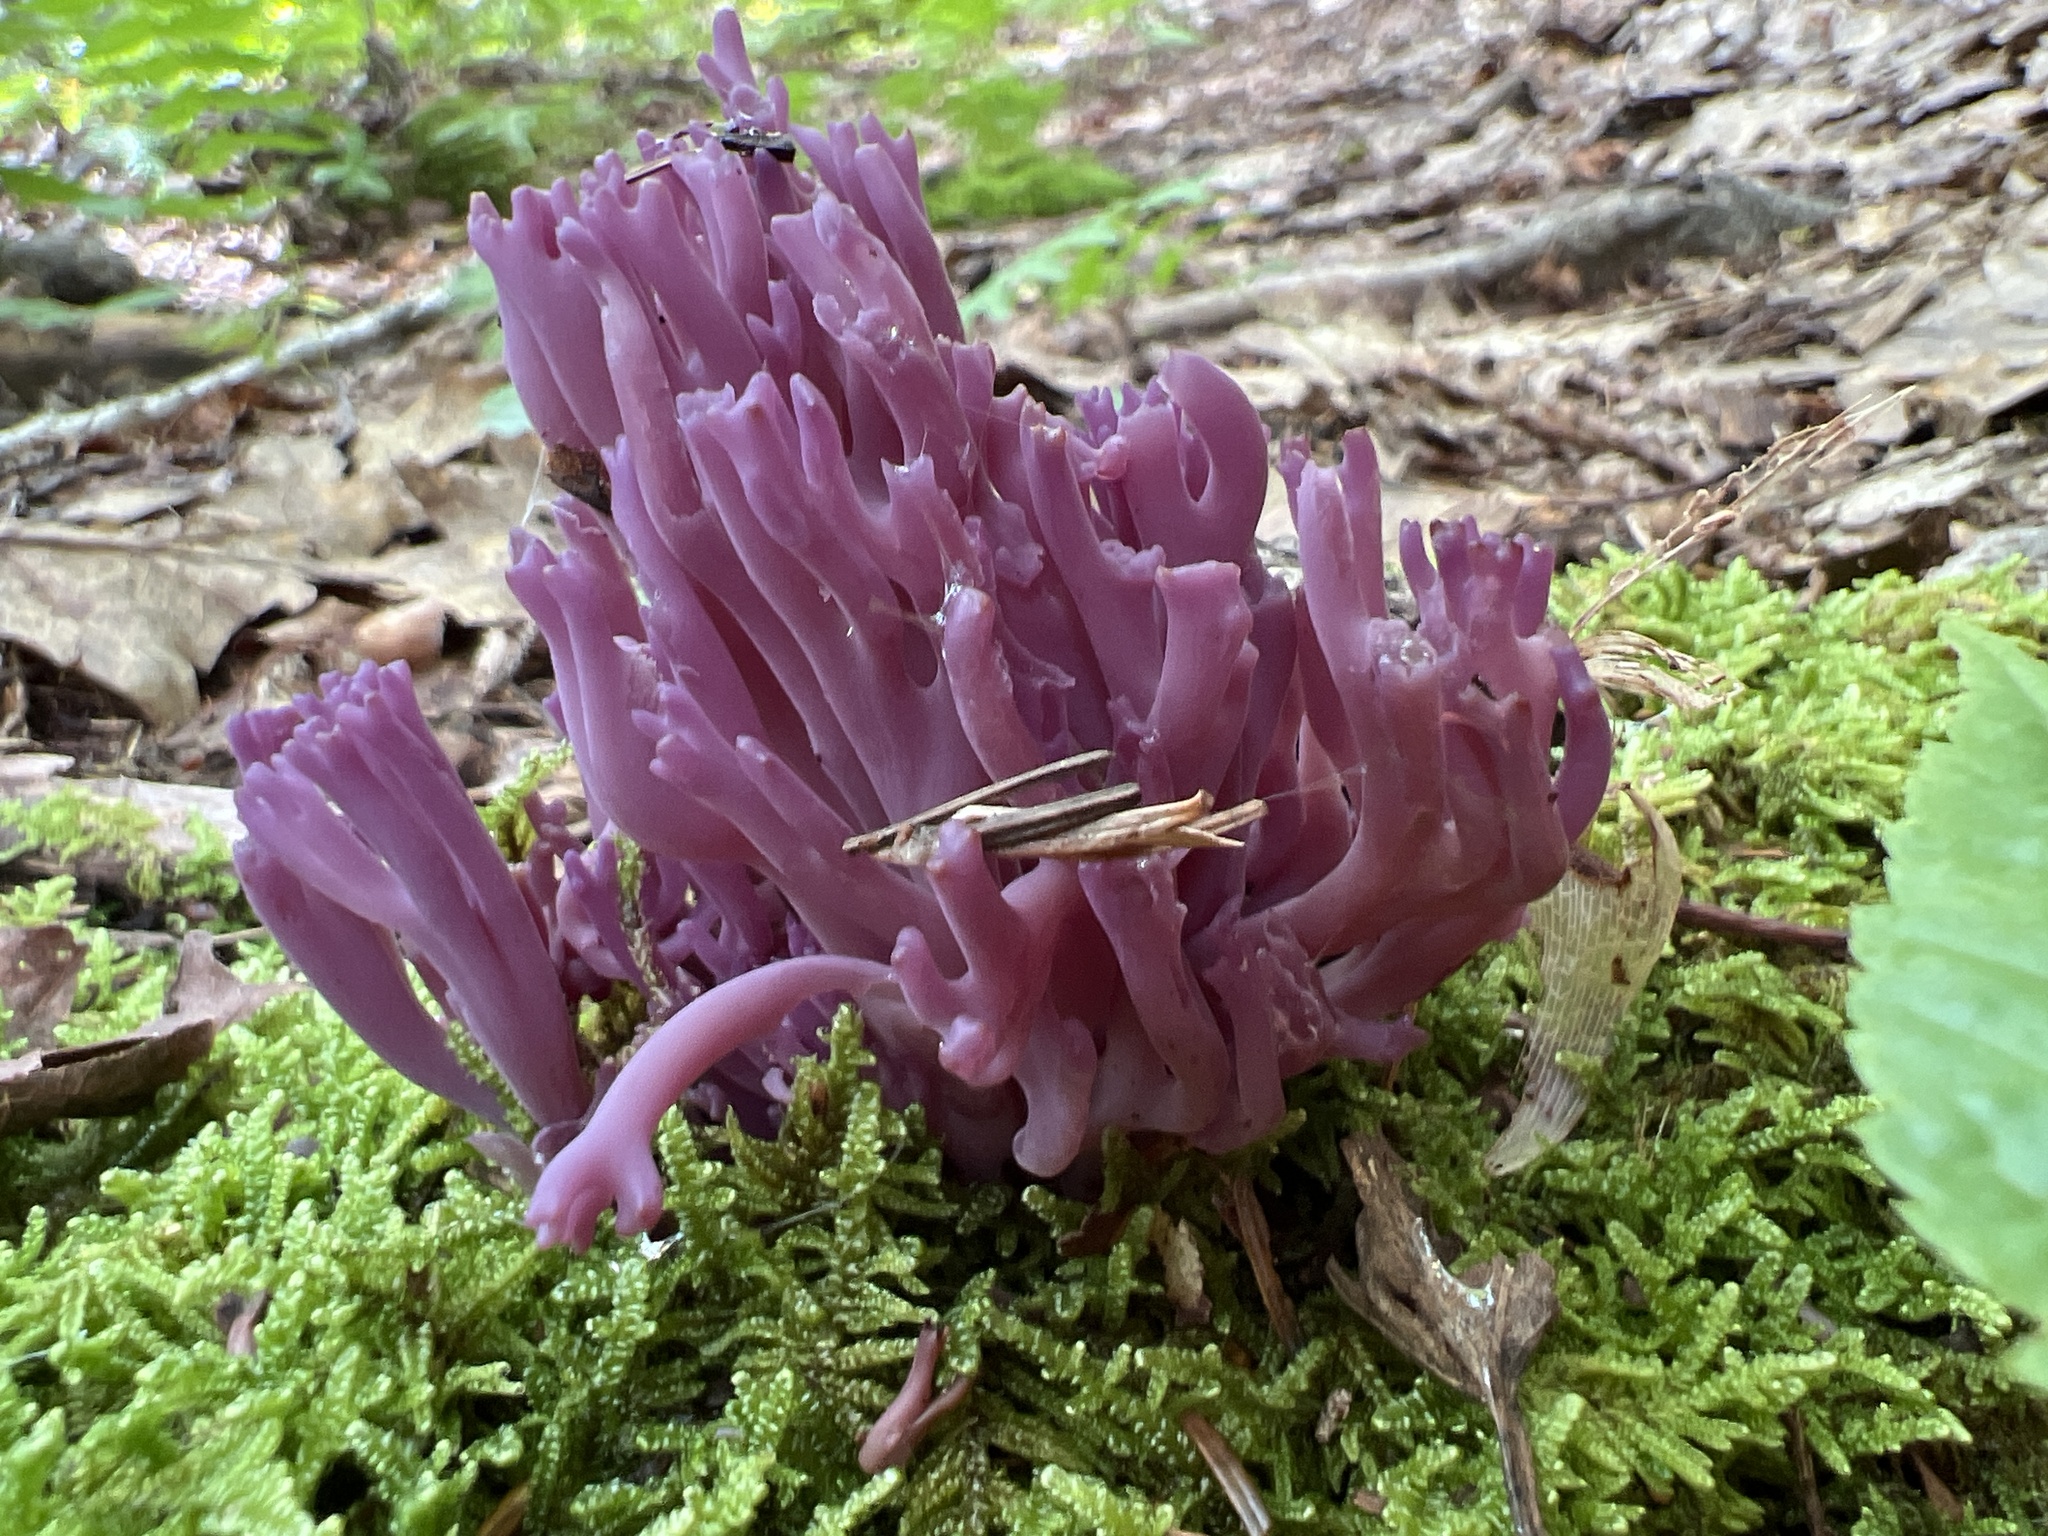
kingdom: Fungi
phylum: Basidiomycota
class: Agaricomycetes
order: Agaricales
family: Clavariaceae
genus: Clavaria
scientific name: Clavaria zollingeri
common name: Violet coral
